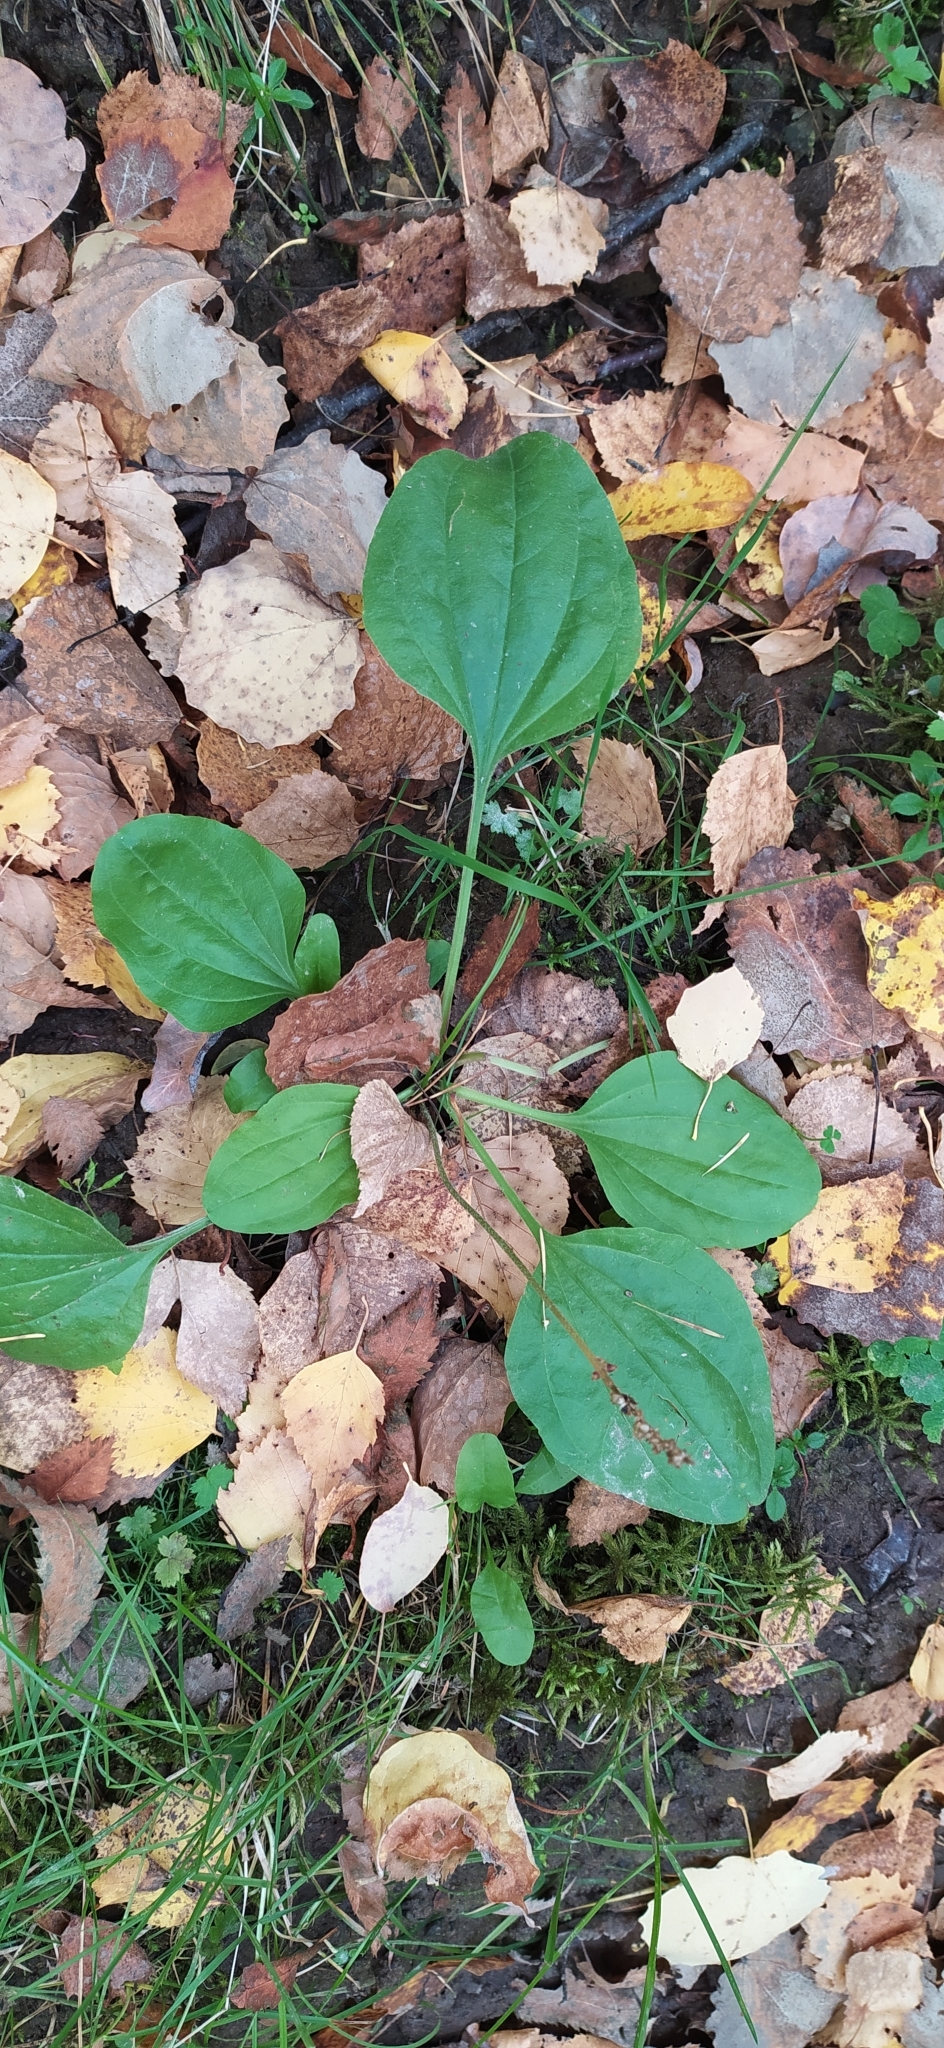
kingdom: Plantae
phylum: Tracheophyta
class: Magnoliopsida
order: Lamiales
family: Plantaginaceae
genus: Plantago
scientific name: Plantago major
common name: Common plantain
